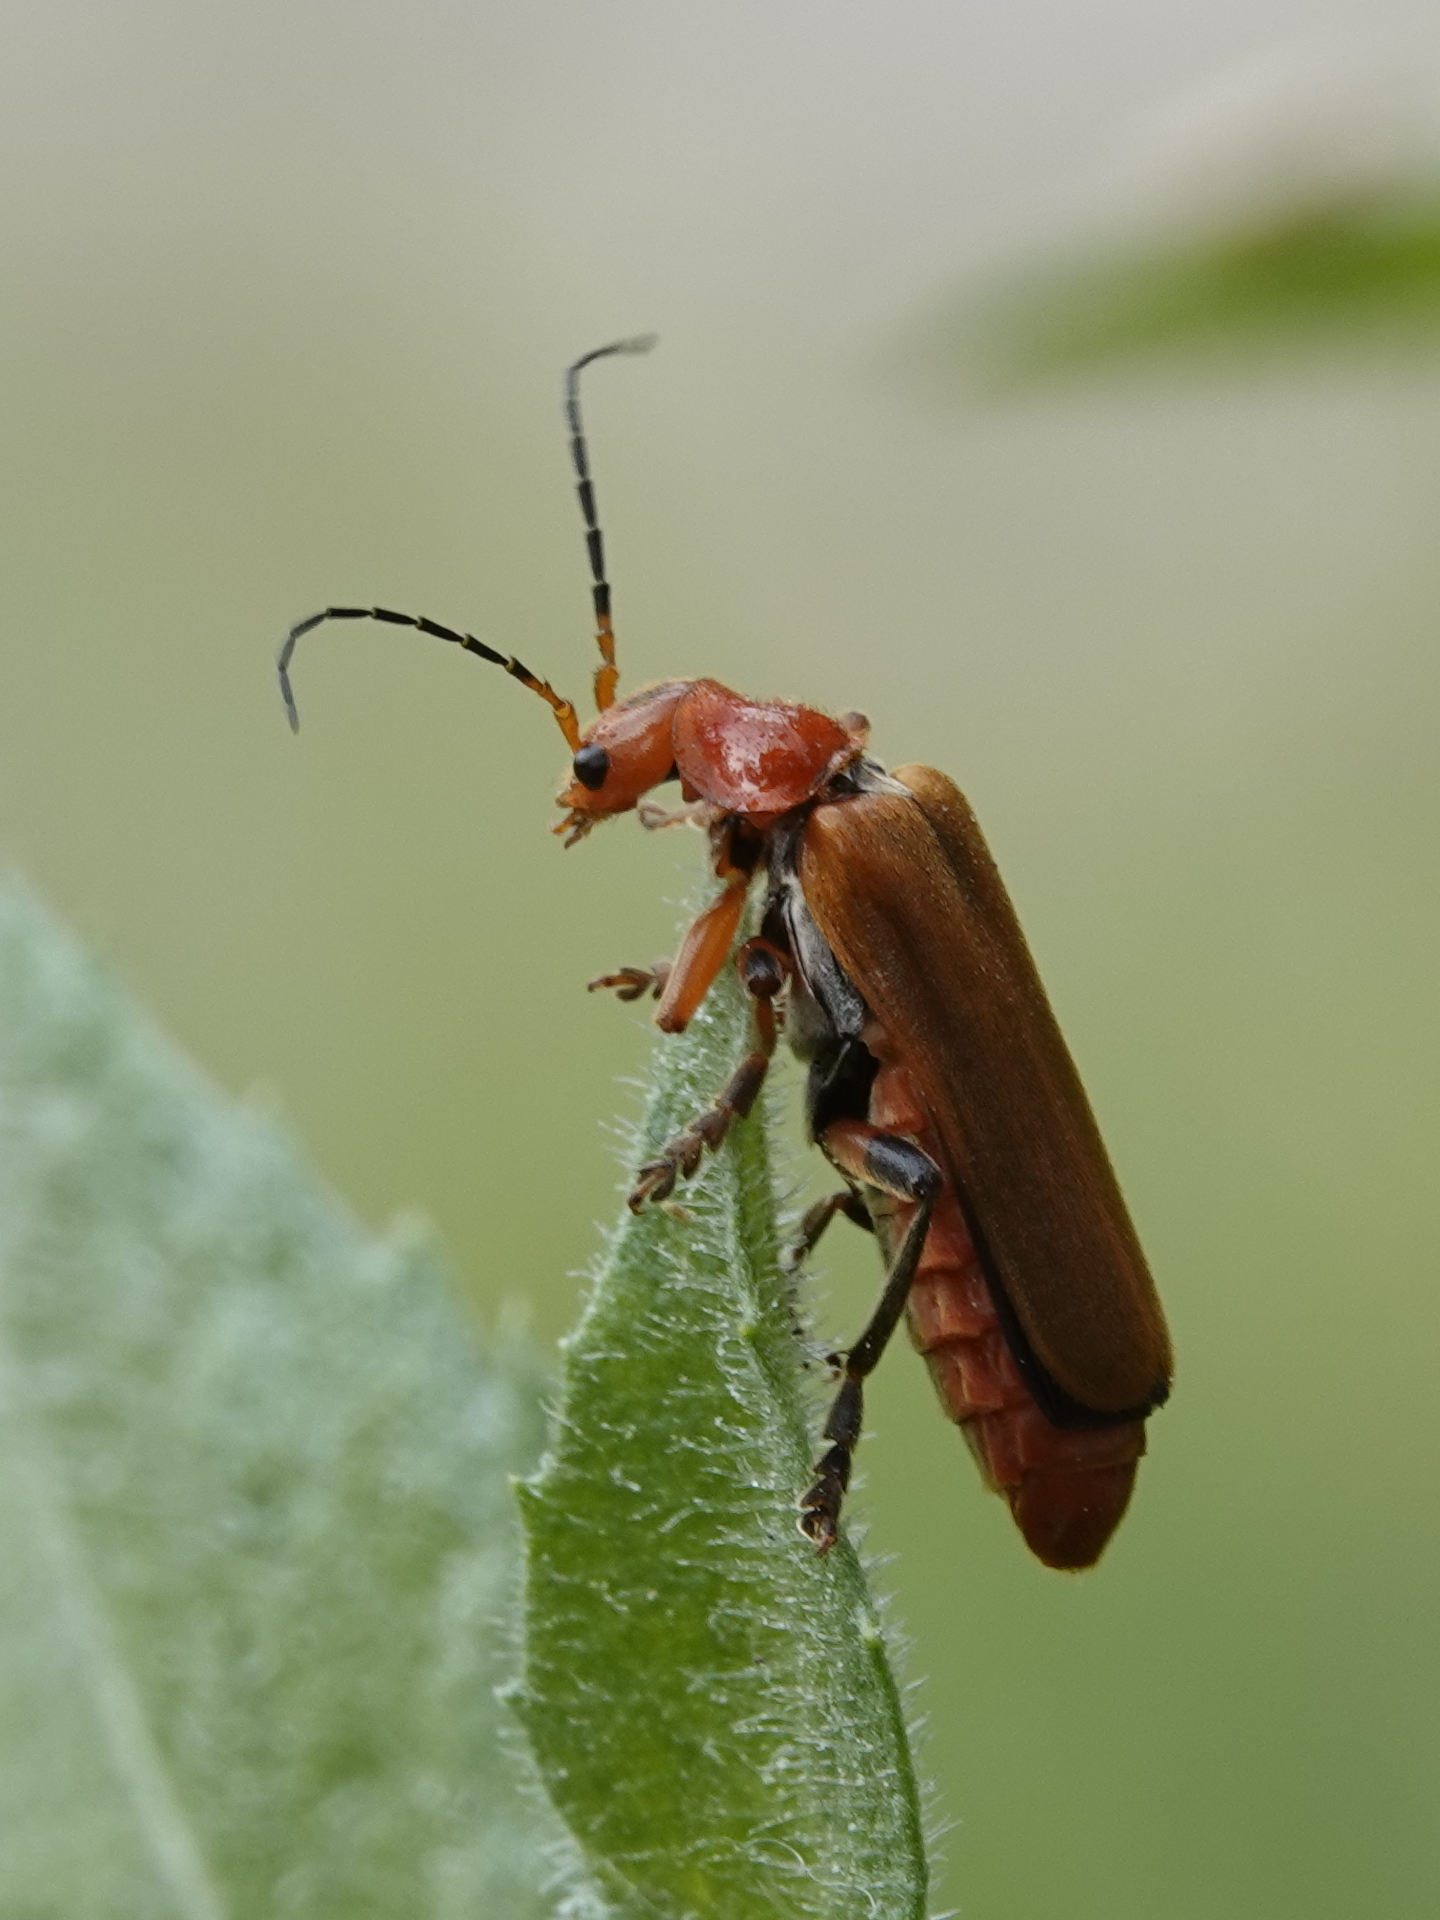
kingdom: Animalia
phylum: Arthropoda
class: Insecta
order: Coleoptera
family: Cantharidae
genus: Cantharis
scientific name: Cantharis melaspoides
